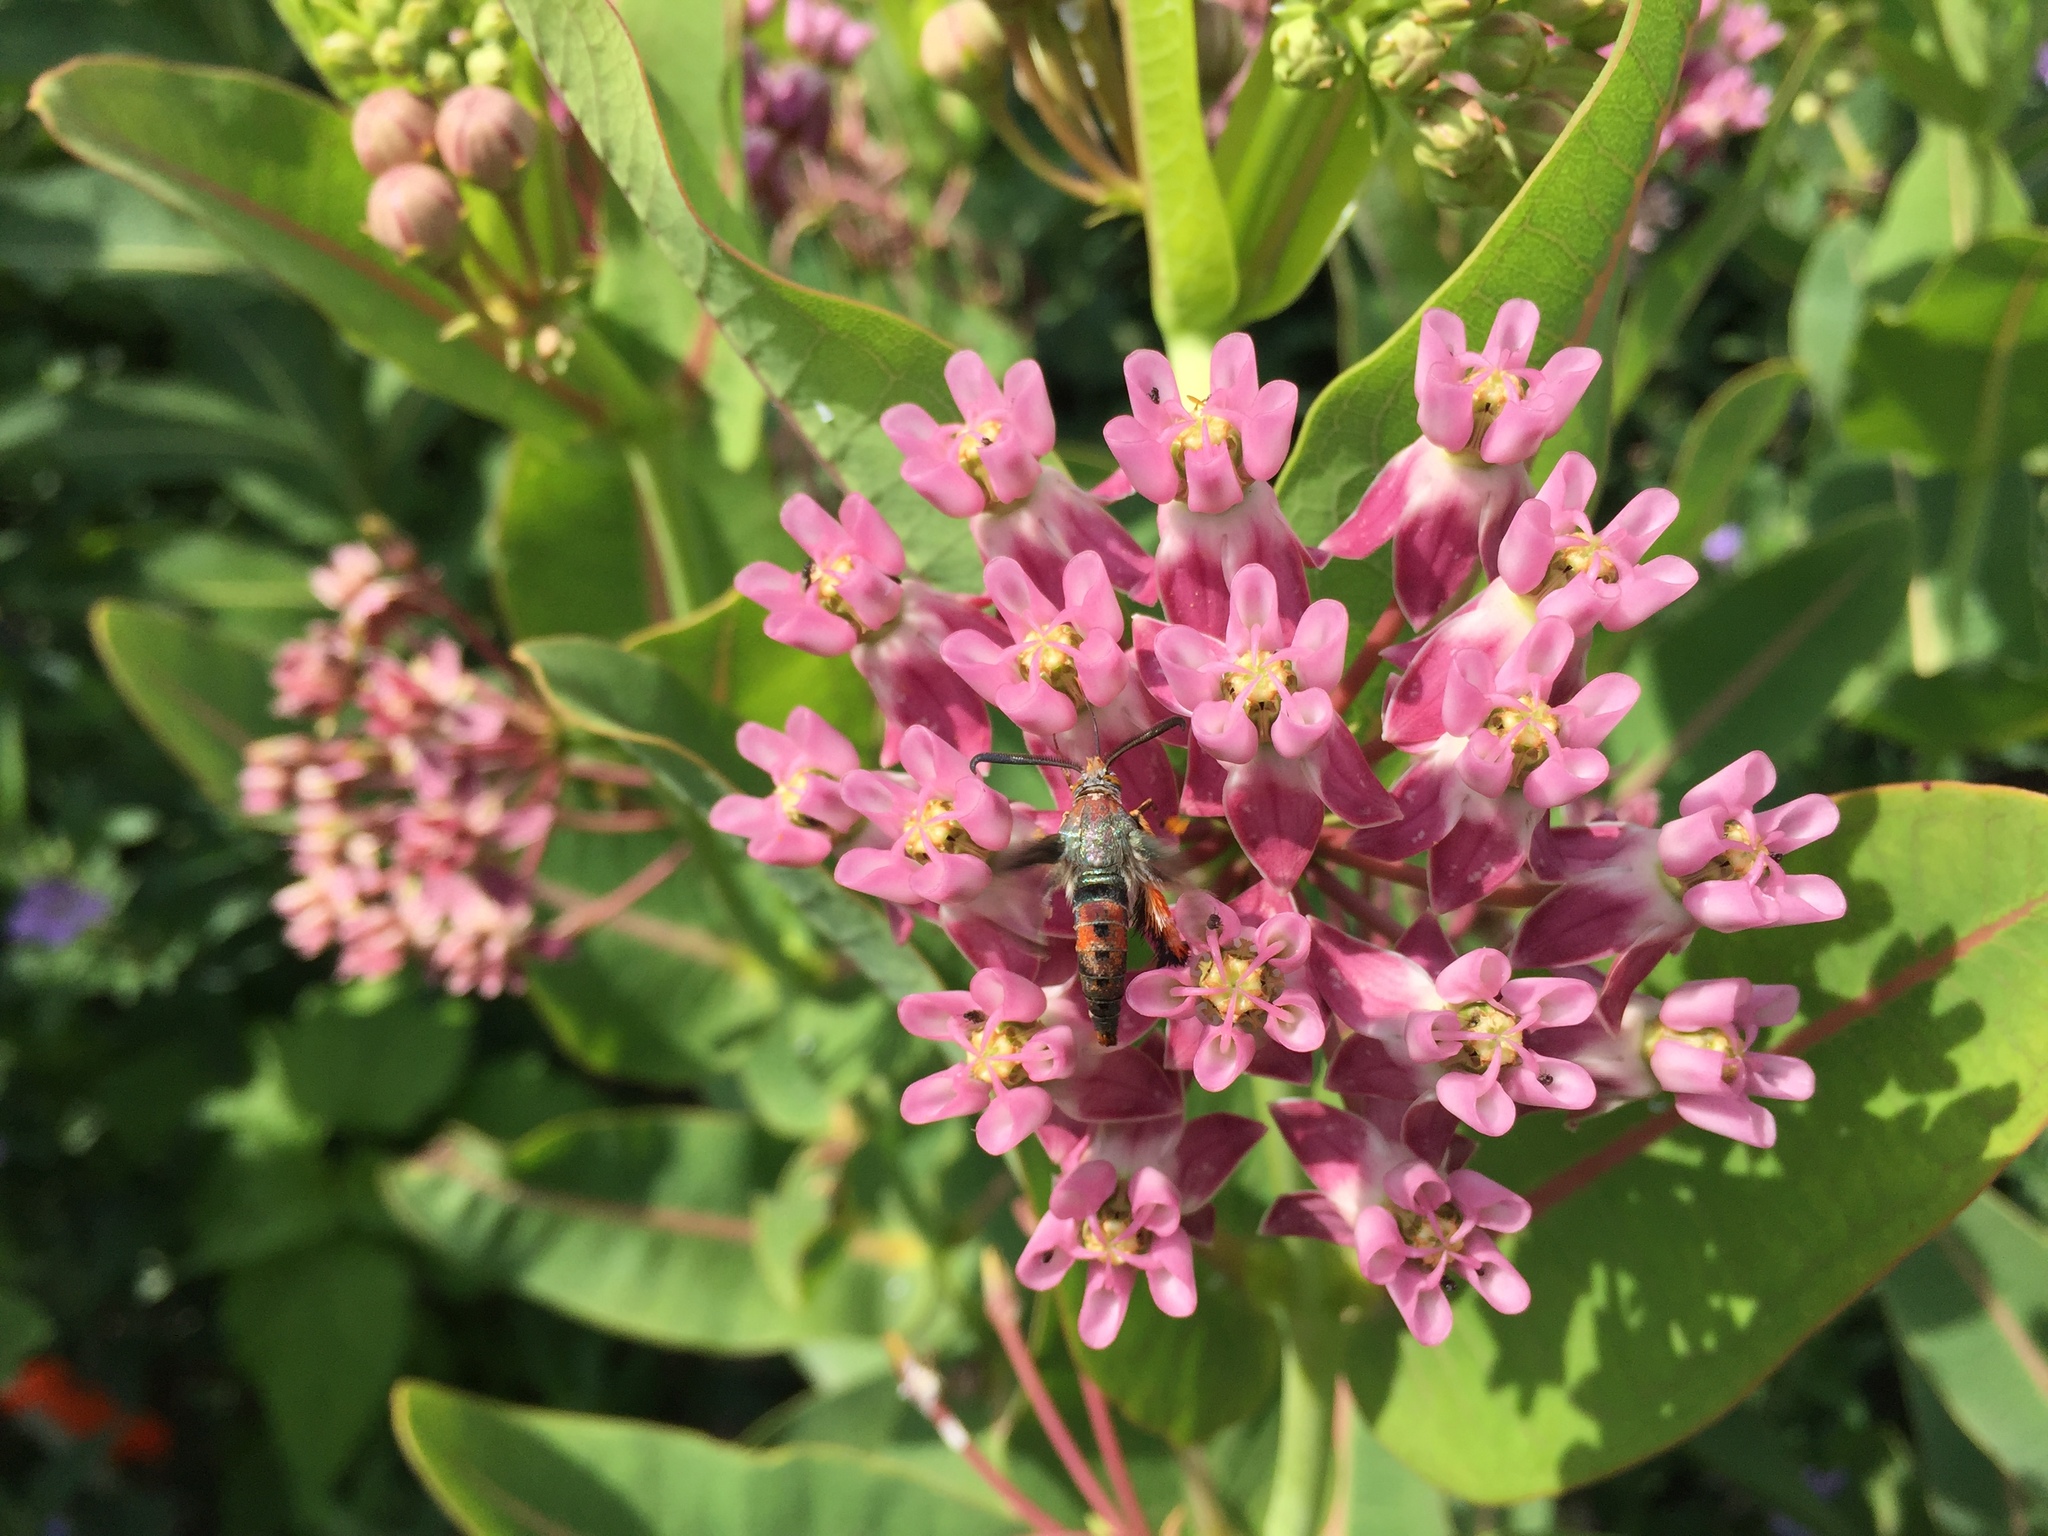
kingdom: Animalia
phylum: Arthropoda
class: Insecta
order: Lepidoptera
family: Sesiidae
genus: Eichlinia
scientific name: Eichlinia cucurbitae
